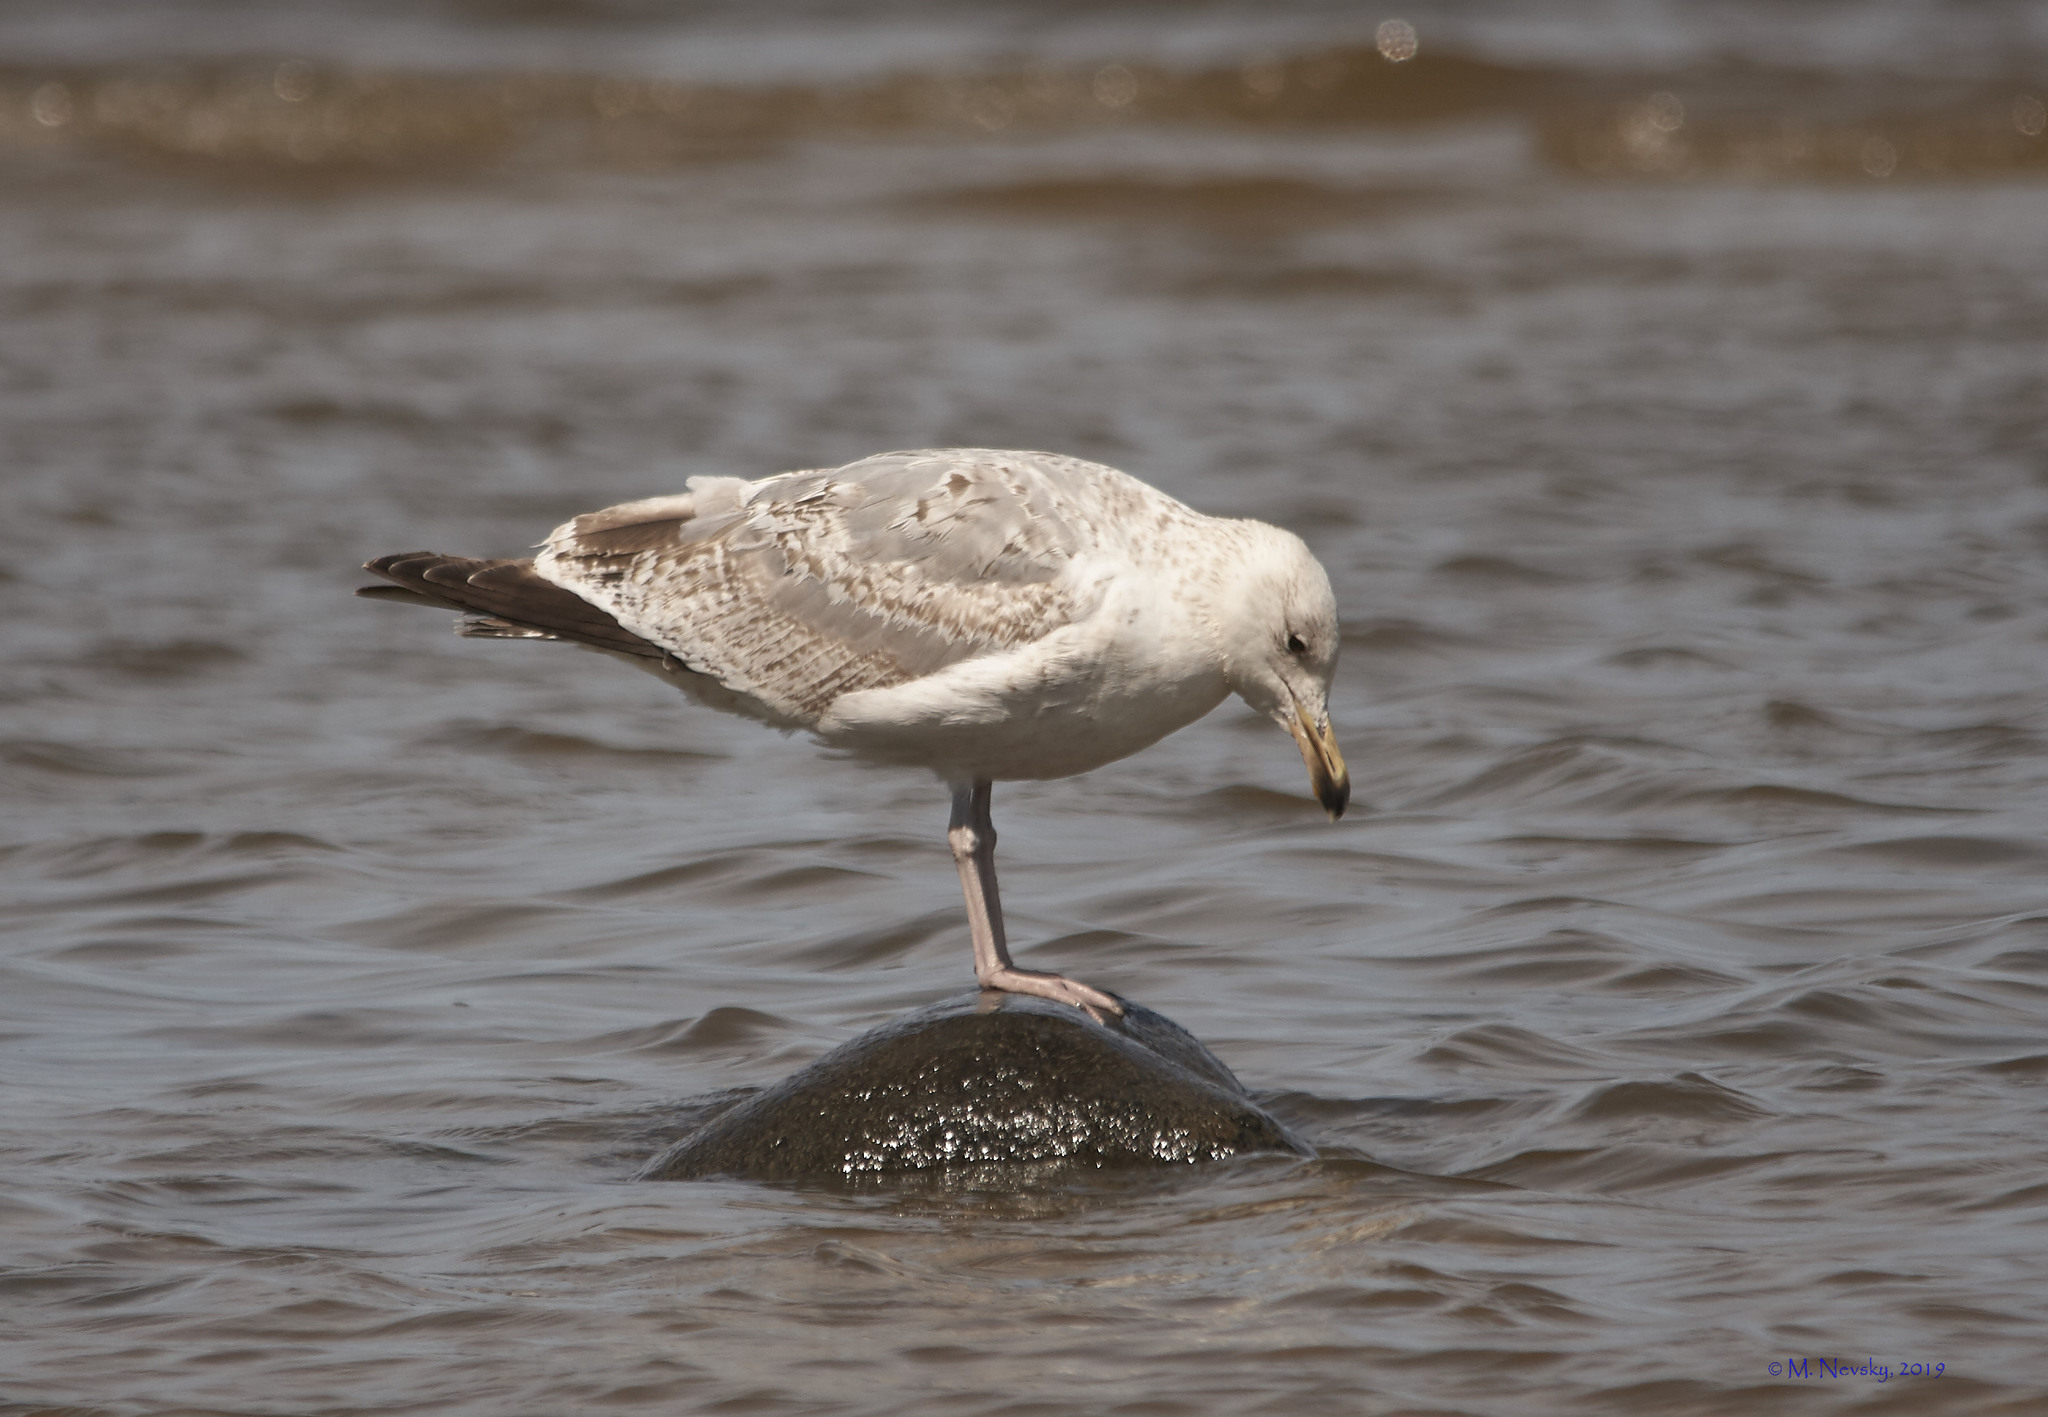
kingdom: Animalia
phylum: Chordata
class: Aves
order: Charadriiformes
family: Laridae
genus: Larus
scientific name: Larus argentatus
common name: Herring gull
